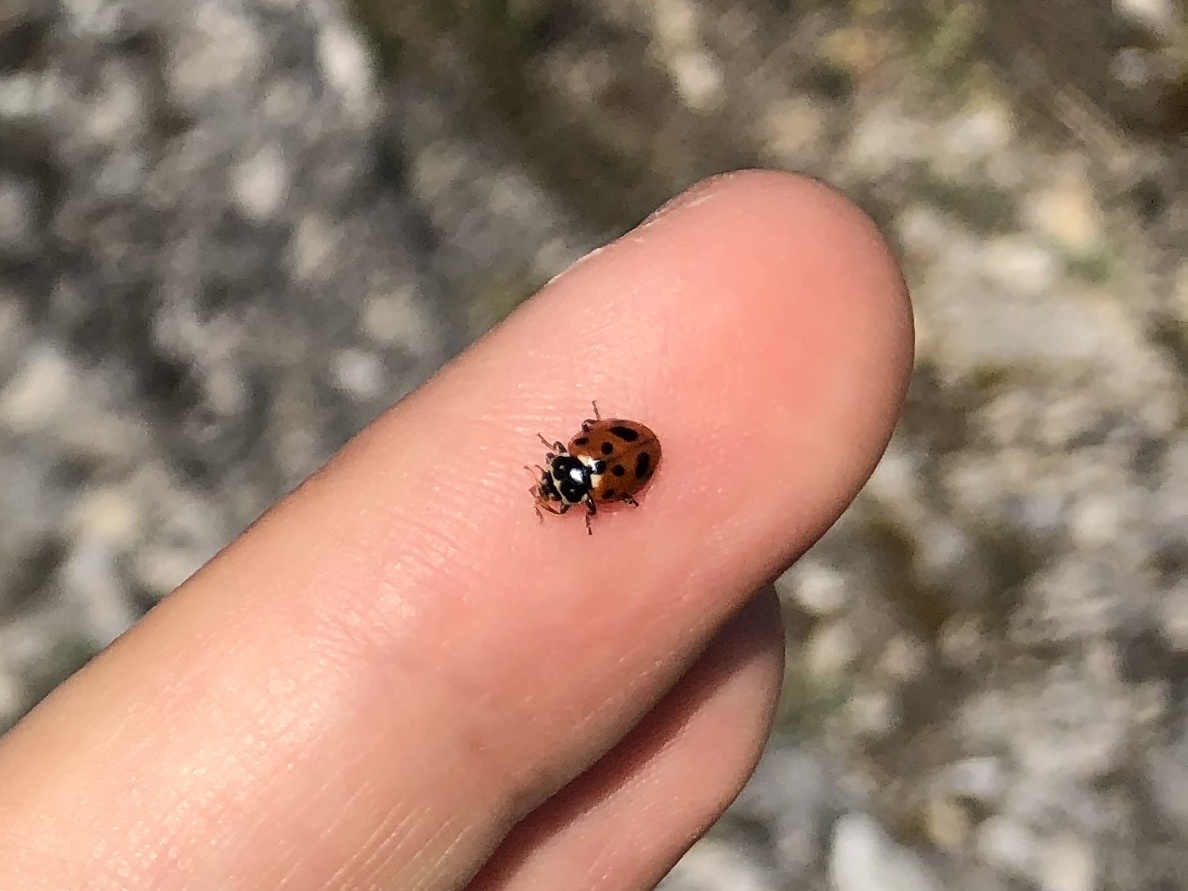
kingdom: Animalia
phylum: Arthropoda
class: Insecta
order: Coleoptera
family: Coccinellidae
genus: Hippodamia
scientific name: Hippodamia variegata
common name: Ladybird beetle
